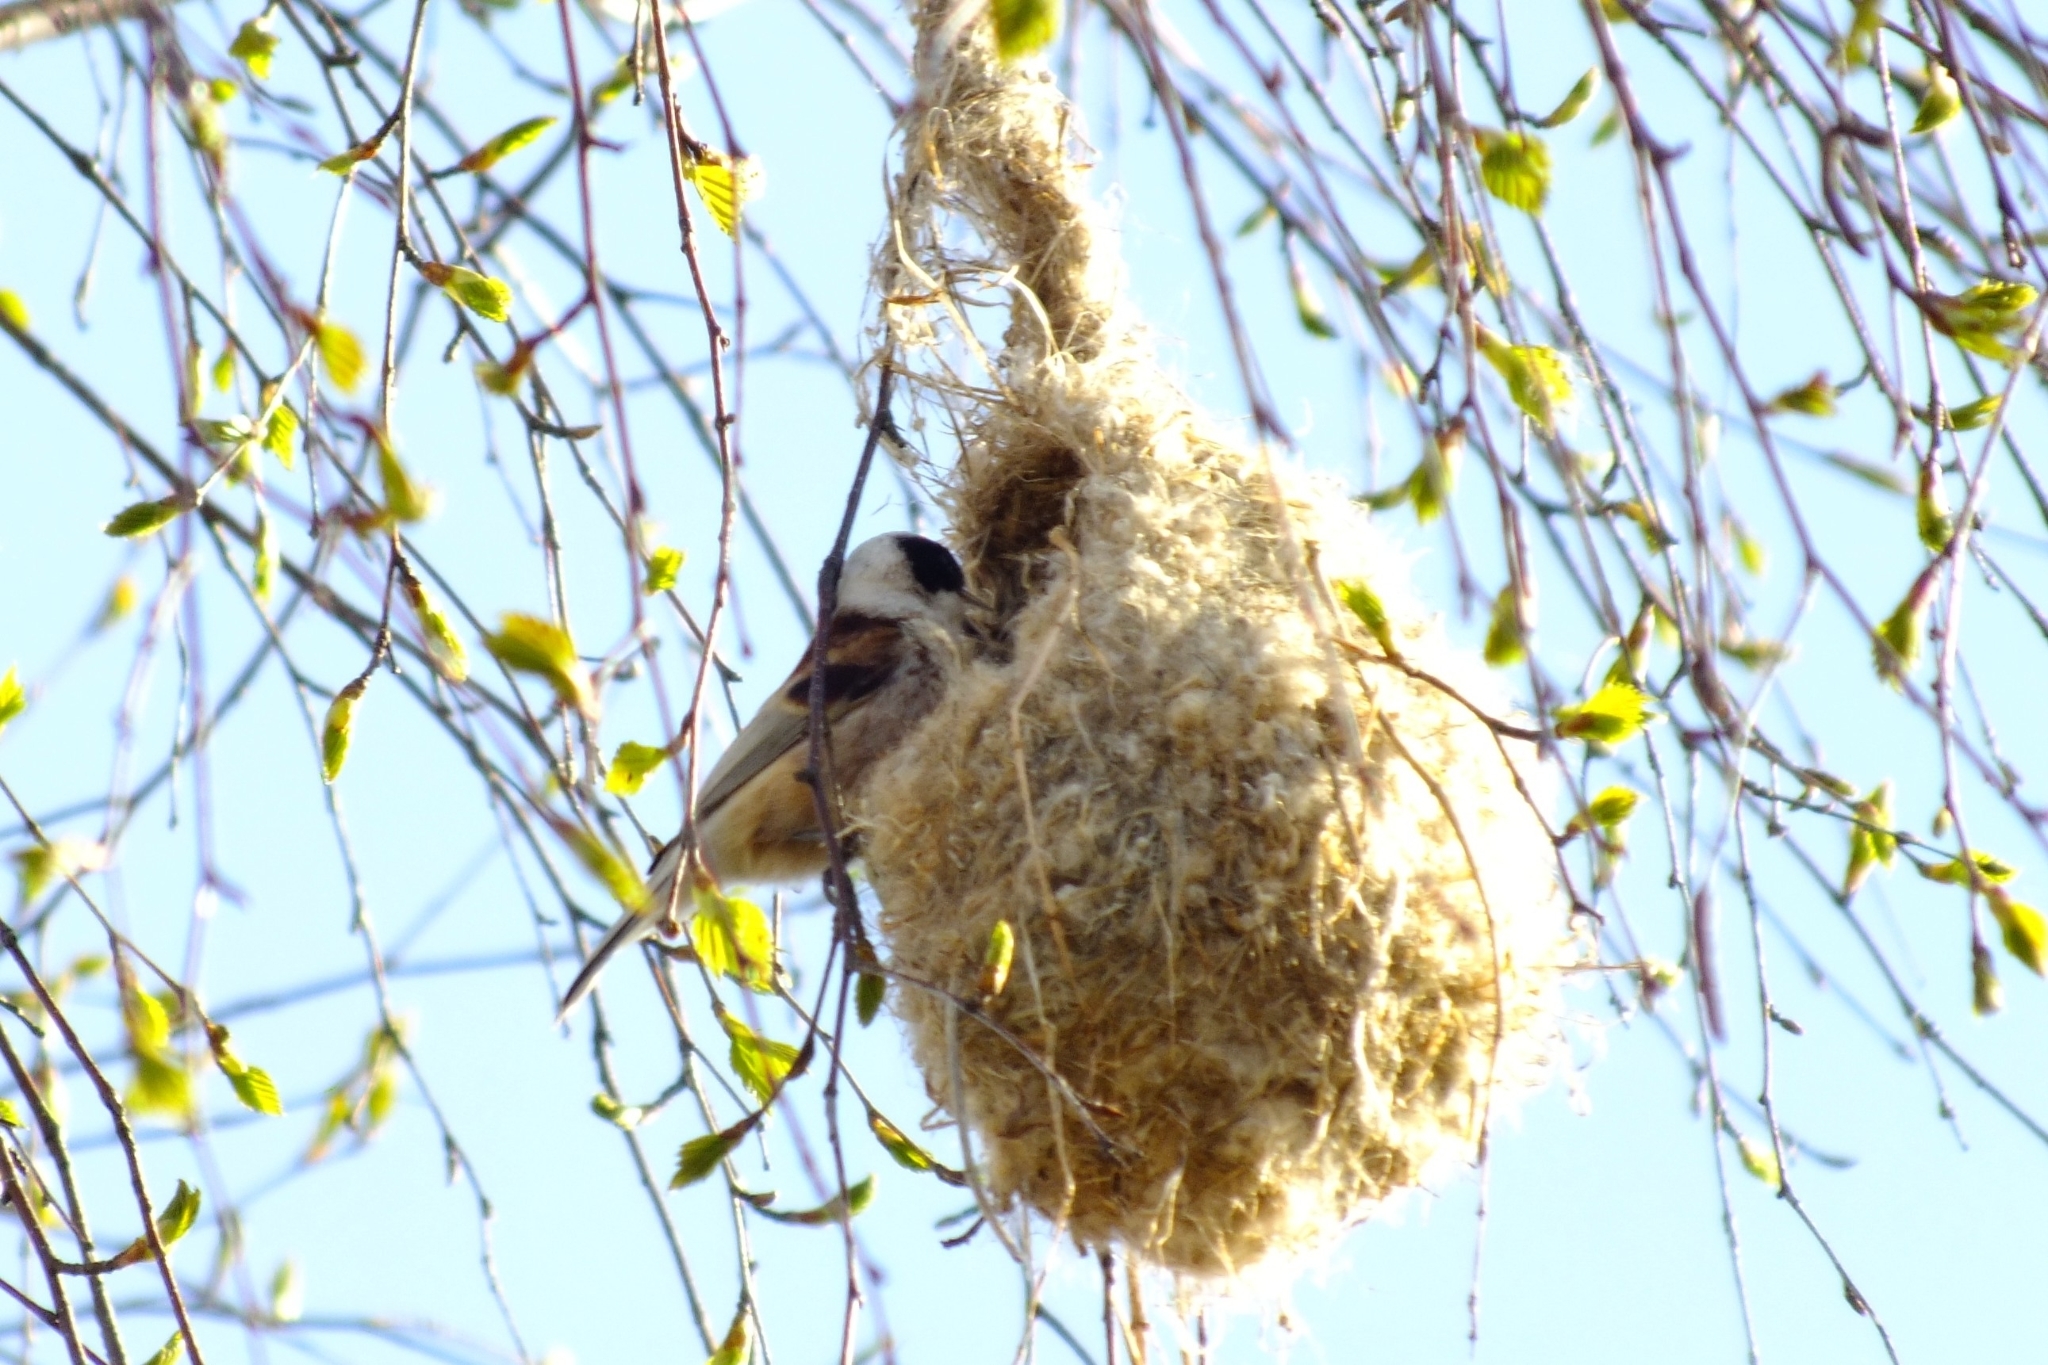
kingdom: Animalia
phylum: Chordata
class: Aves
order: Passeriformes
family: Remizidae
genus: Remiz
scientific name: Remiz pendulinus
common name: Eurasian penduline tit
